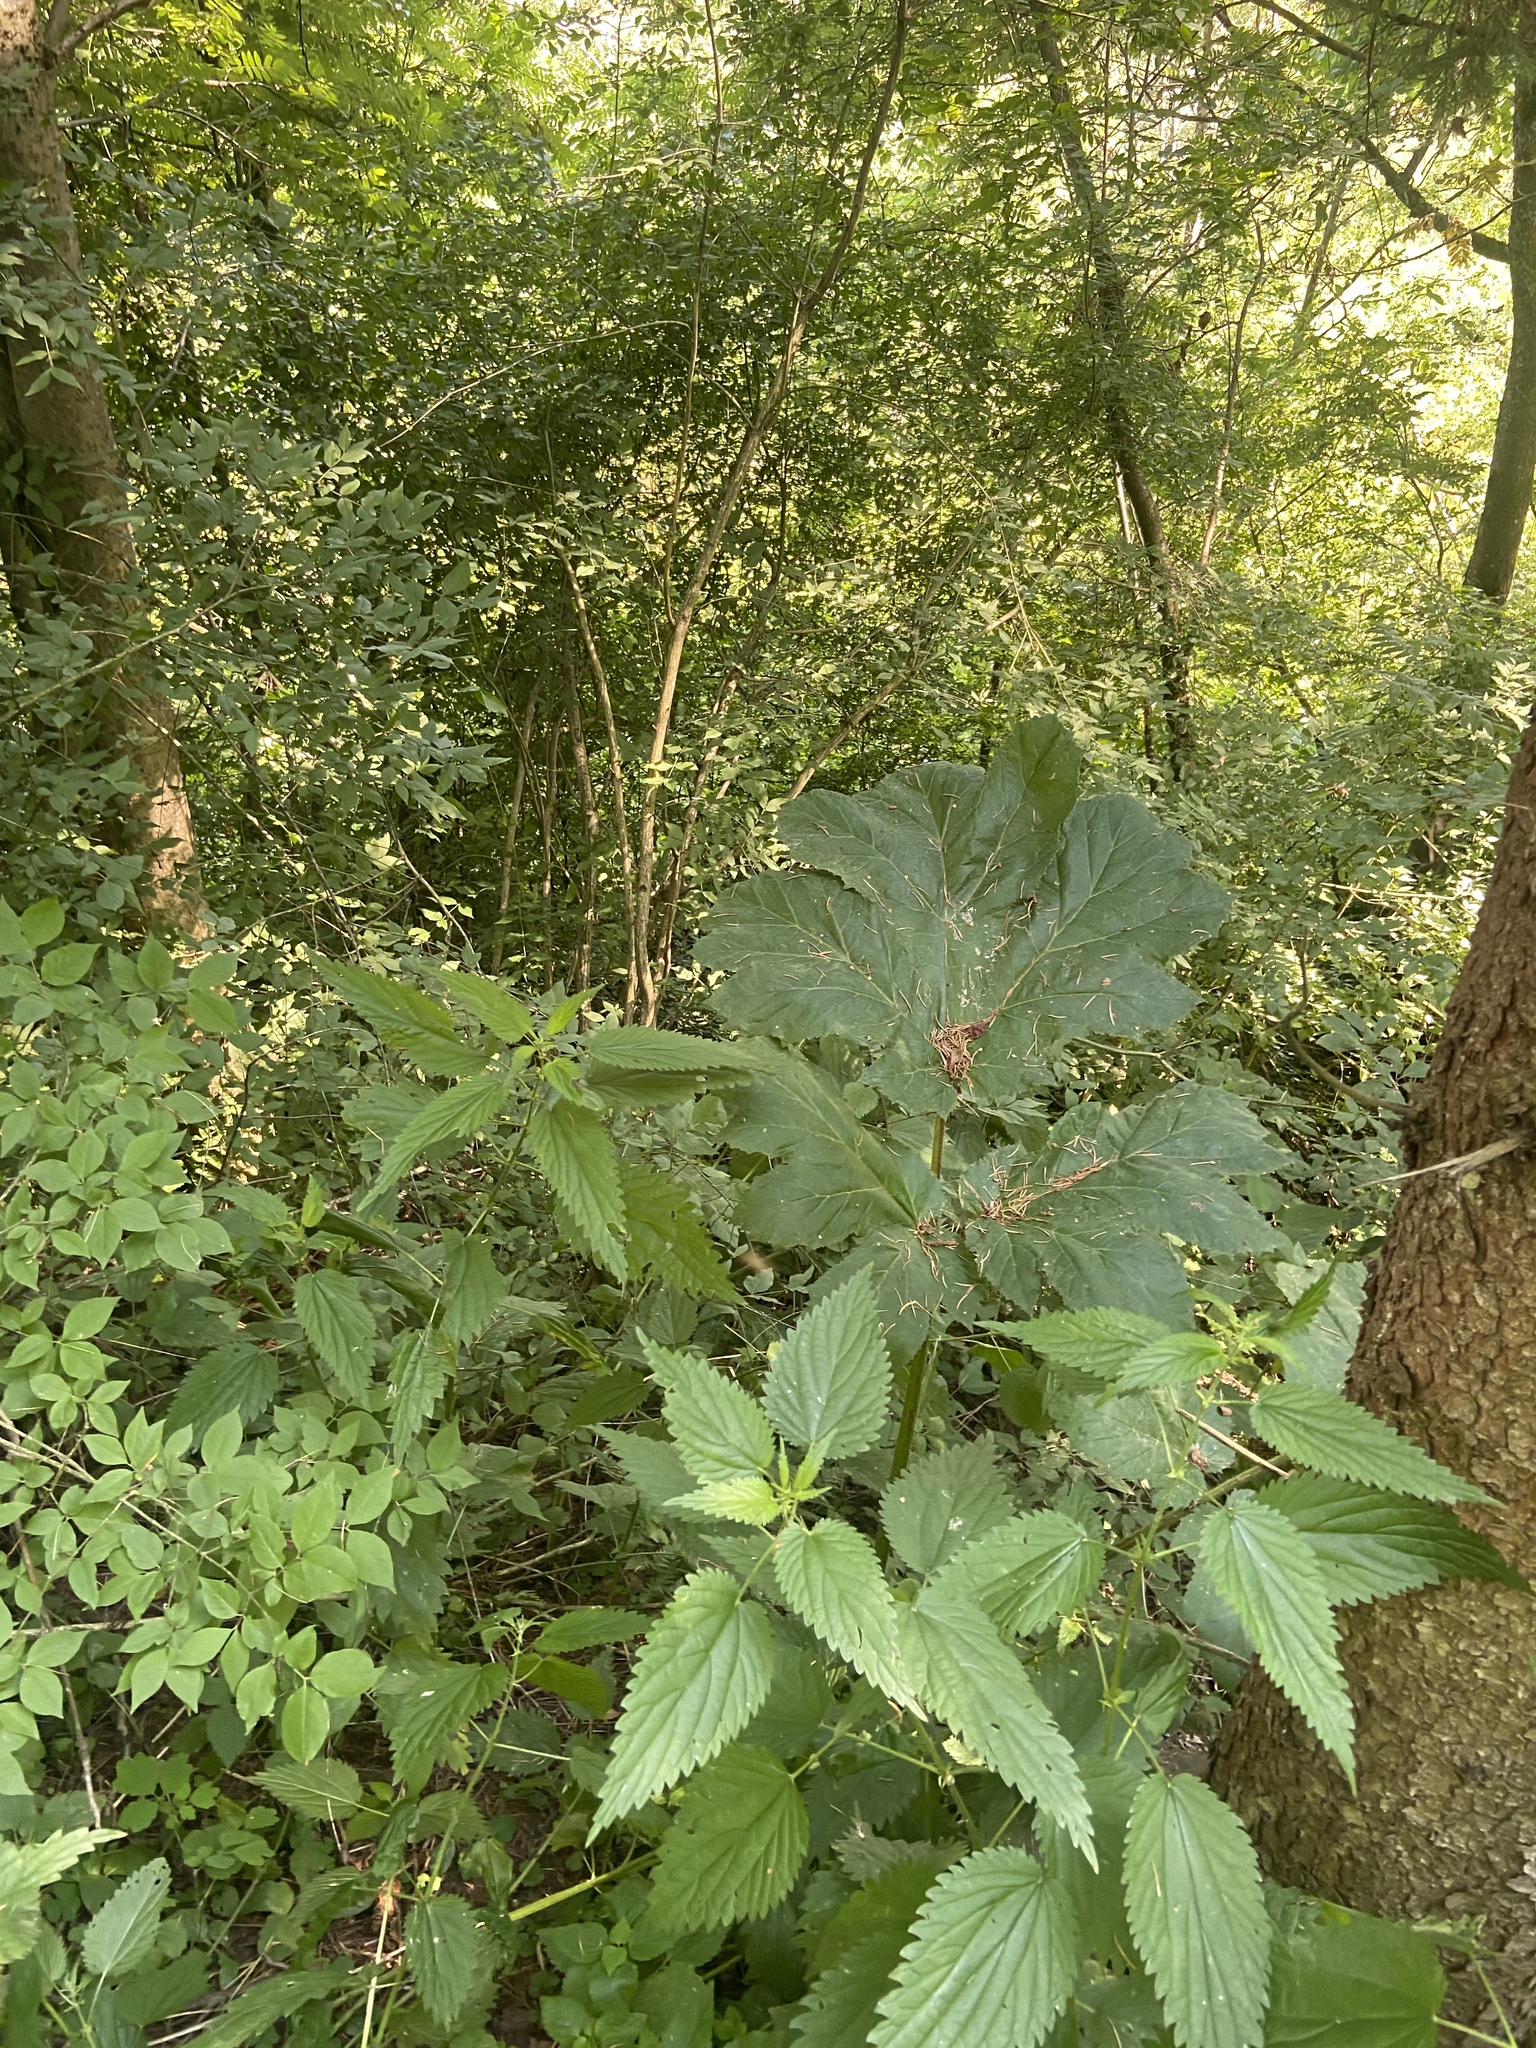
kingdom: Plantae
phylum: Tracheophyta
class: Magnoliopsida
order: Rosales
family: Urticaceae
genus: Urtica
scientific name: Urtica dioica
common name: Common nettle
